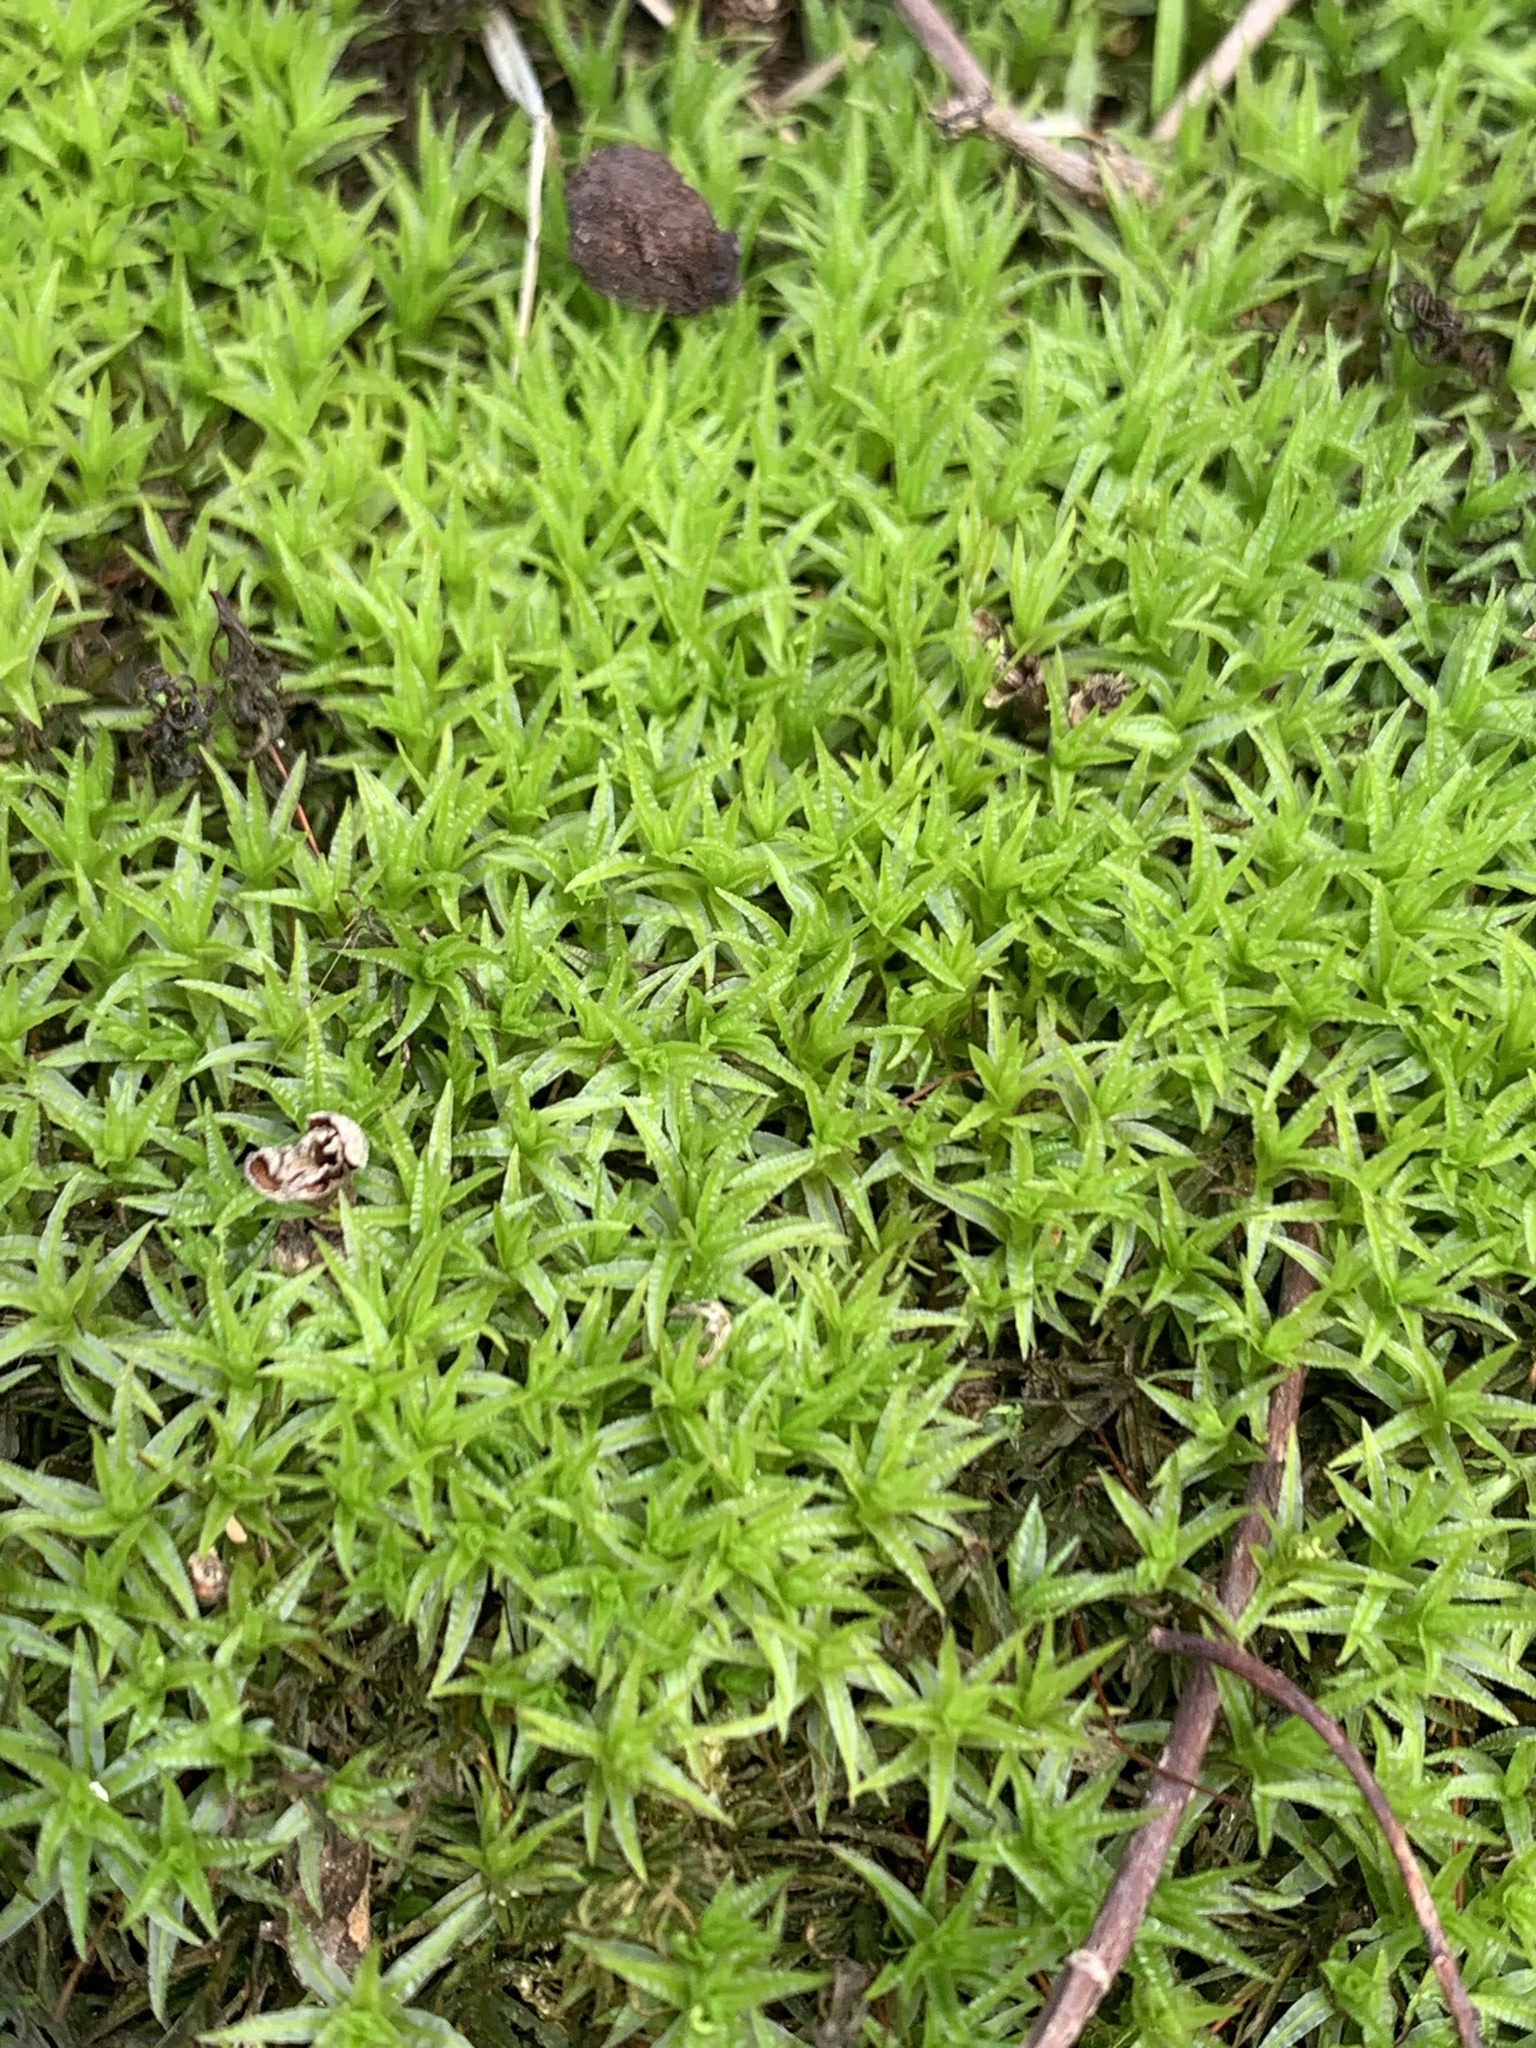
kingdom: Plantae
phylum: Bryophyta
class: Polytrichopsida
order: Polytrichales
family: Polytrichaceae
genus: Atrichum
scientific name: Atrichum undulatum
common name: Common smoothcap
